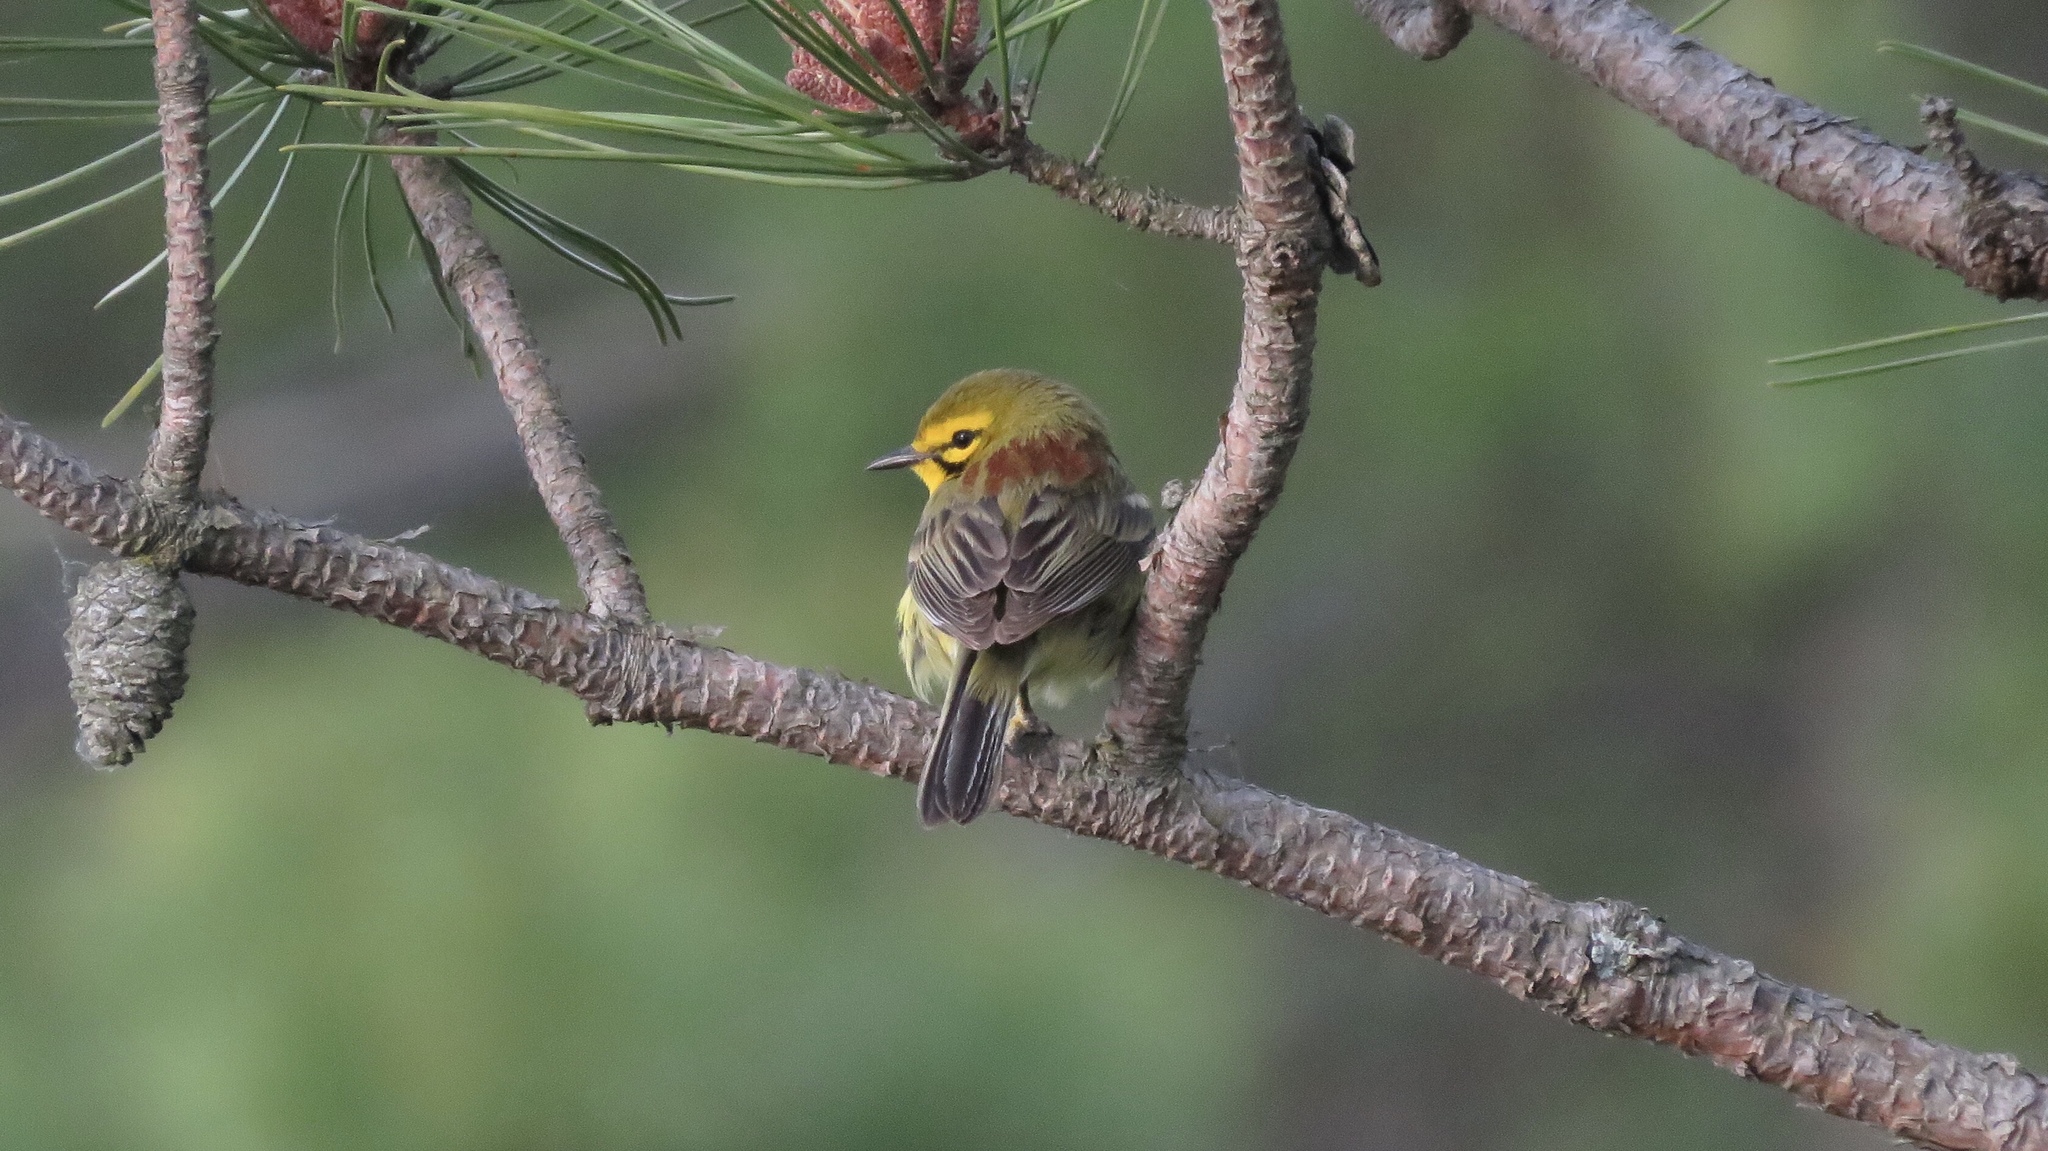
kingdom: Animalia
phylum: Chordata
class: Aves
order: Passeriformes
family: Parulidae
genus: Setophaga
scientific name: Setophaga discolor
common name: Prairie warbler
